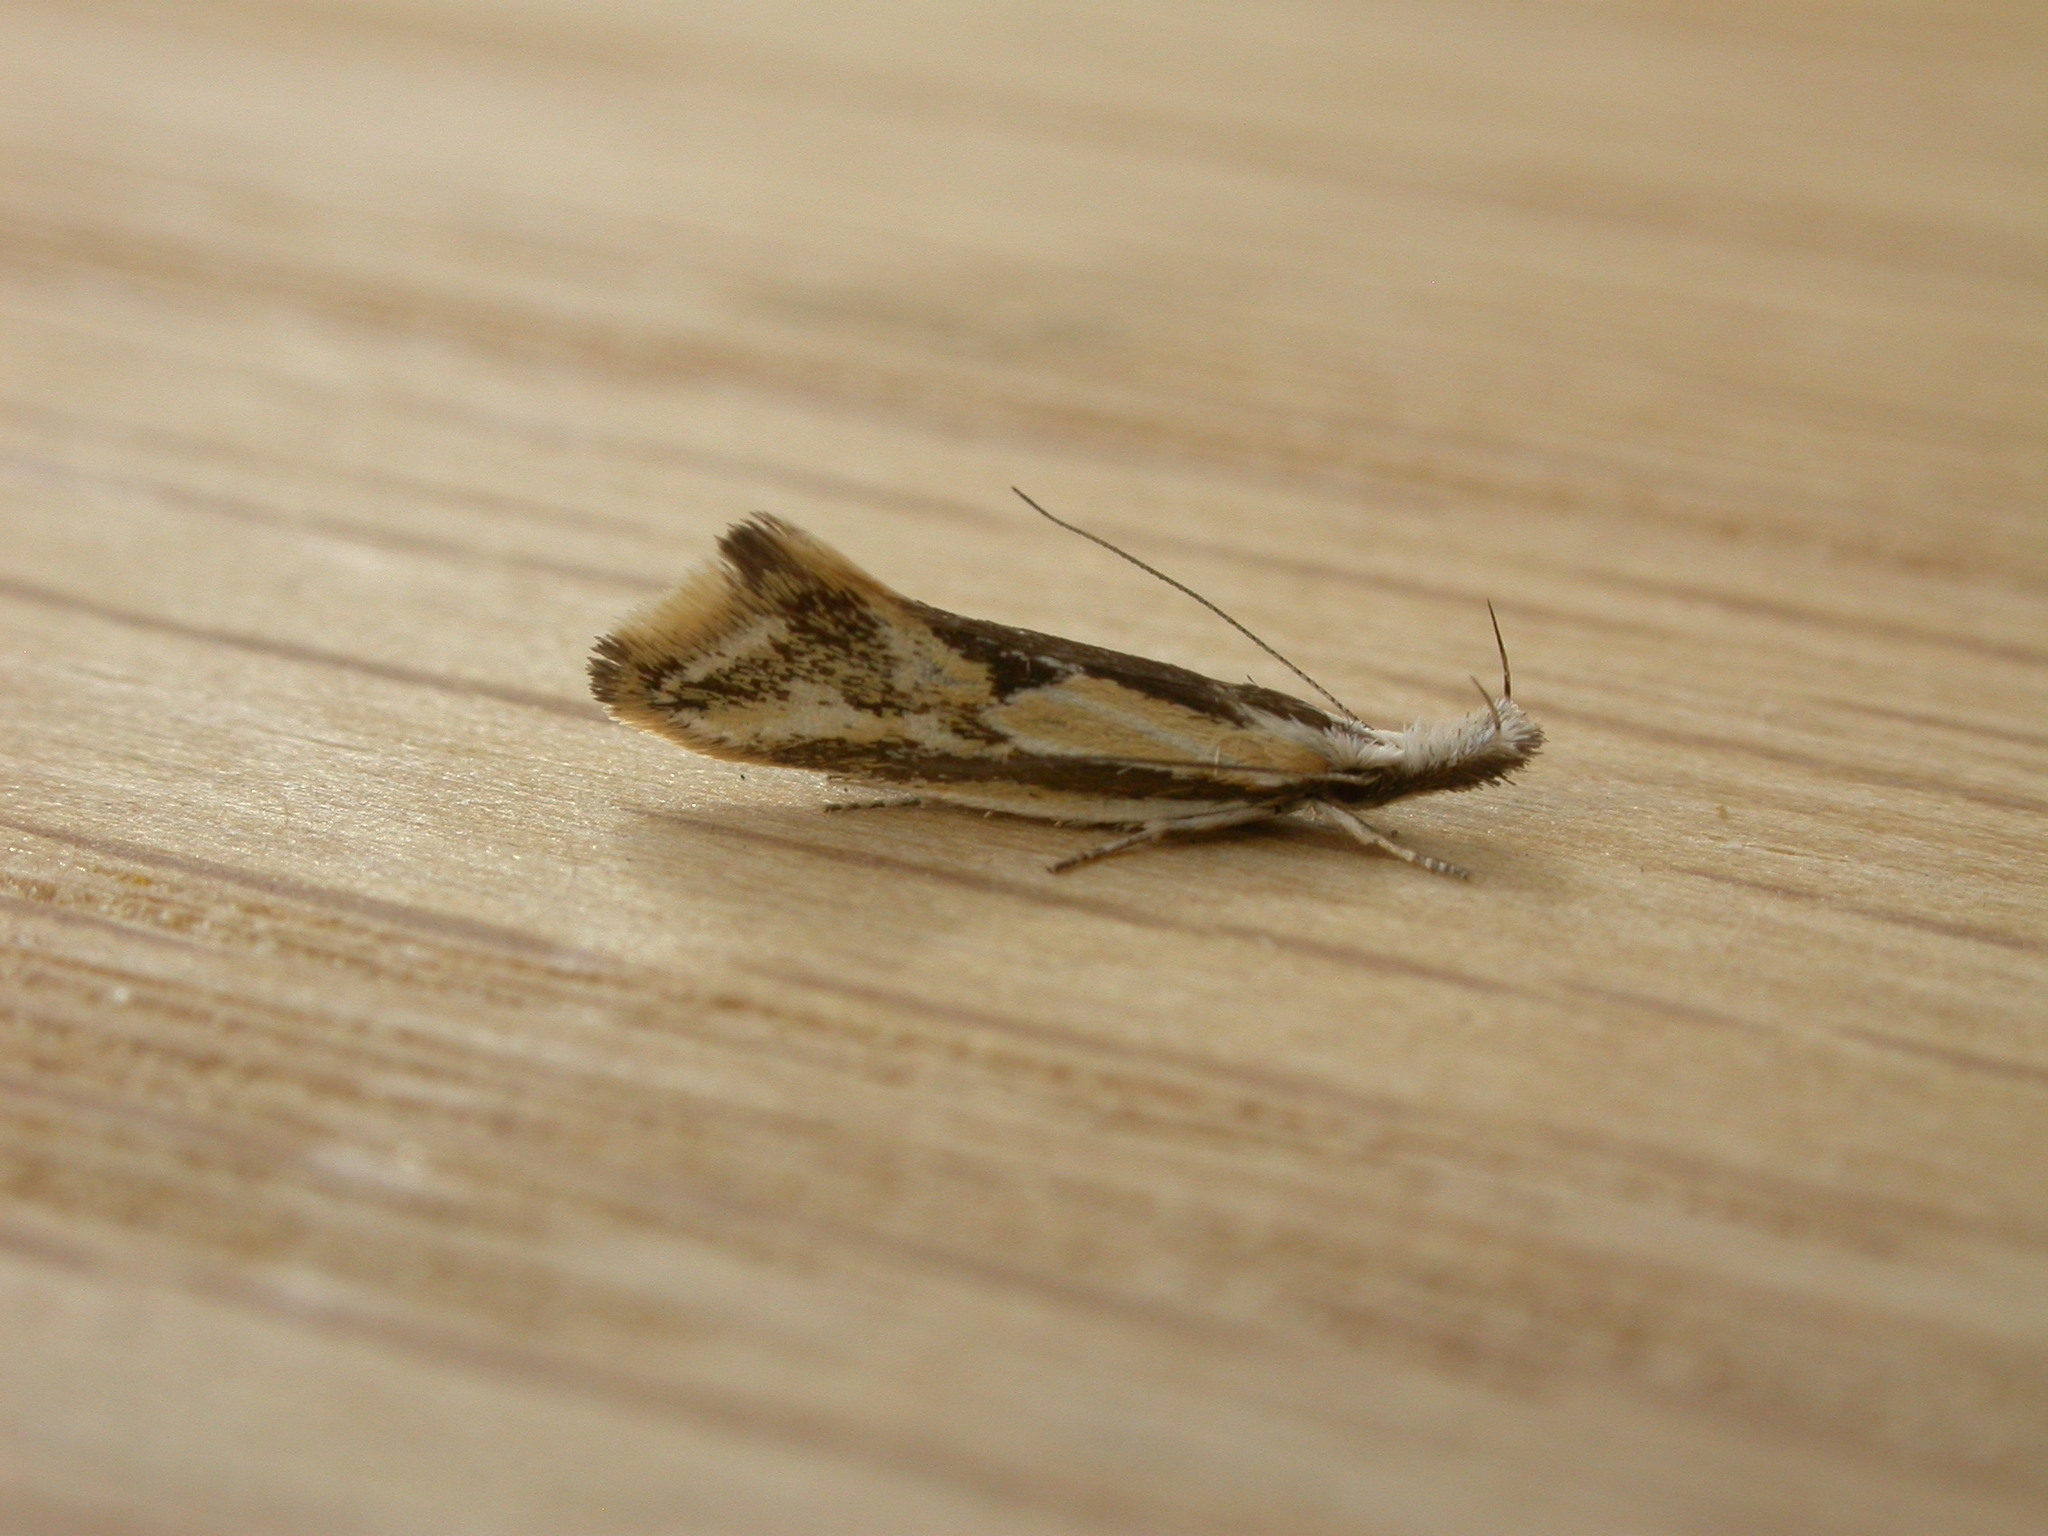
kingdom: Animalia
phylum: Arthropoda
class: Insecta
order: Lepidoptera
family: Oecophoridae
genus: Thema
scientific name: Thema macroscia
